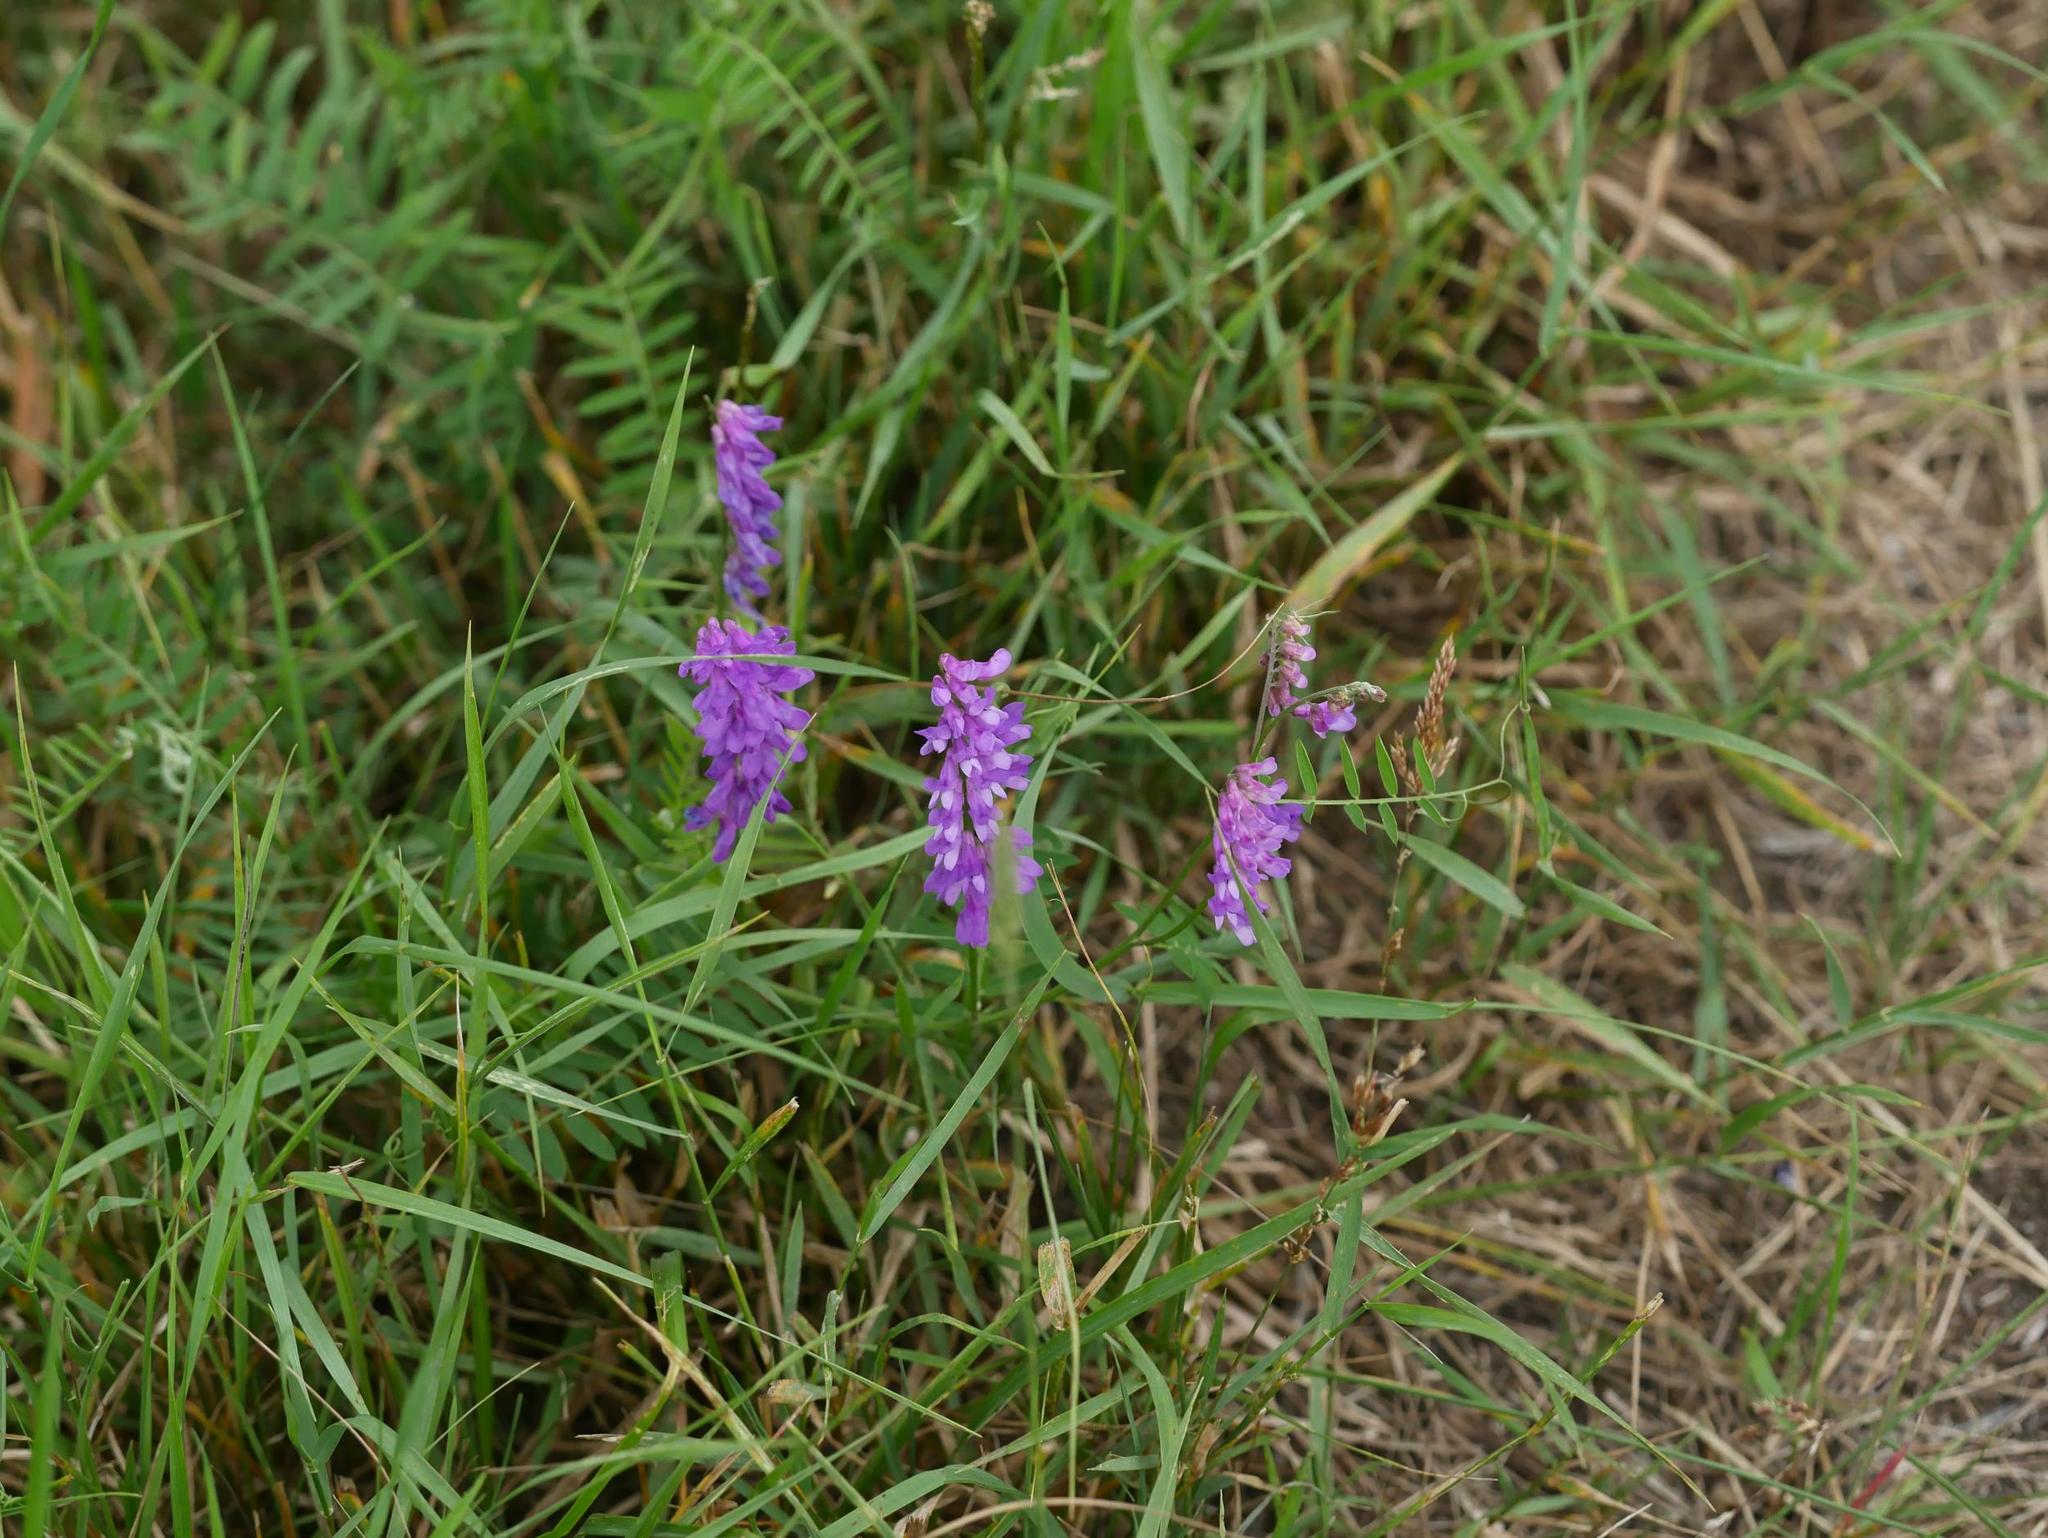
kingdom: Plantae
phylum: Tracheophyta
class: Magnoliopsida
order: Fabales
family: Fabaceae
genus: Vicia
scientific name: Vicia cracca
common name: Bird vetch
